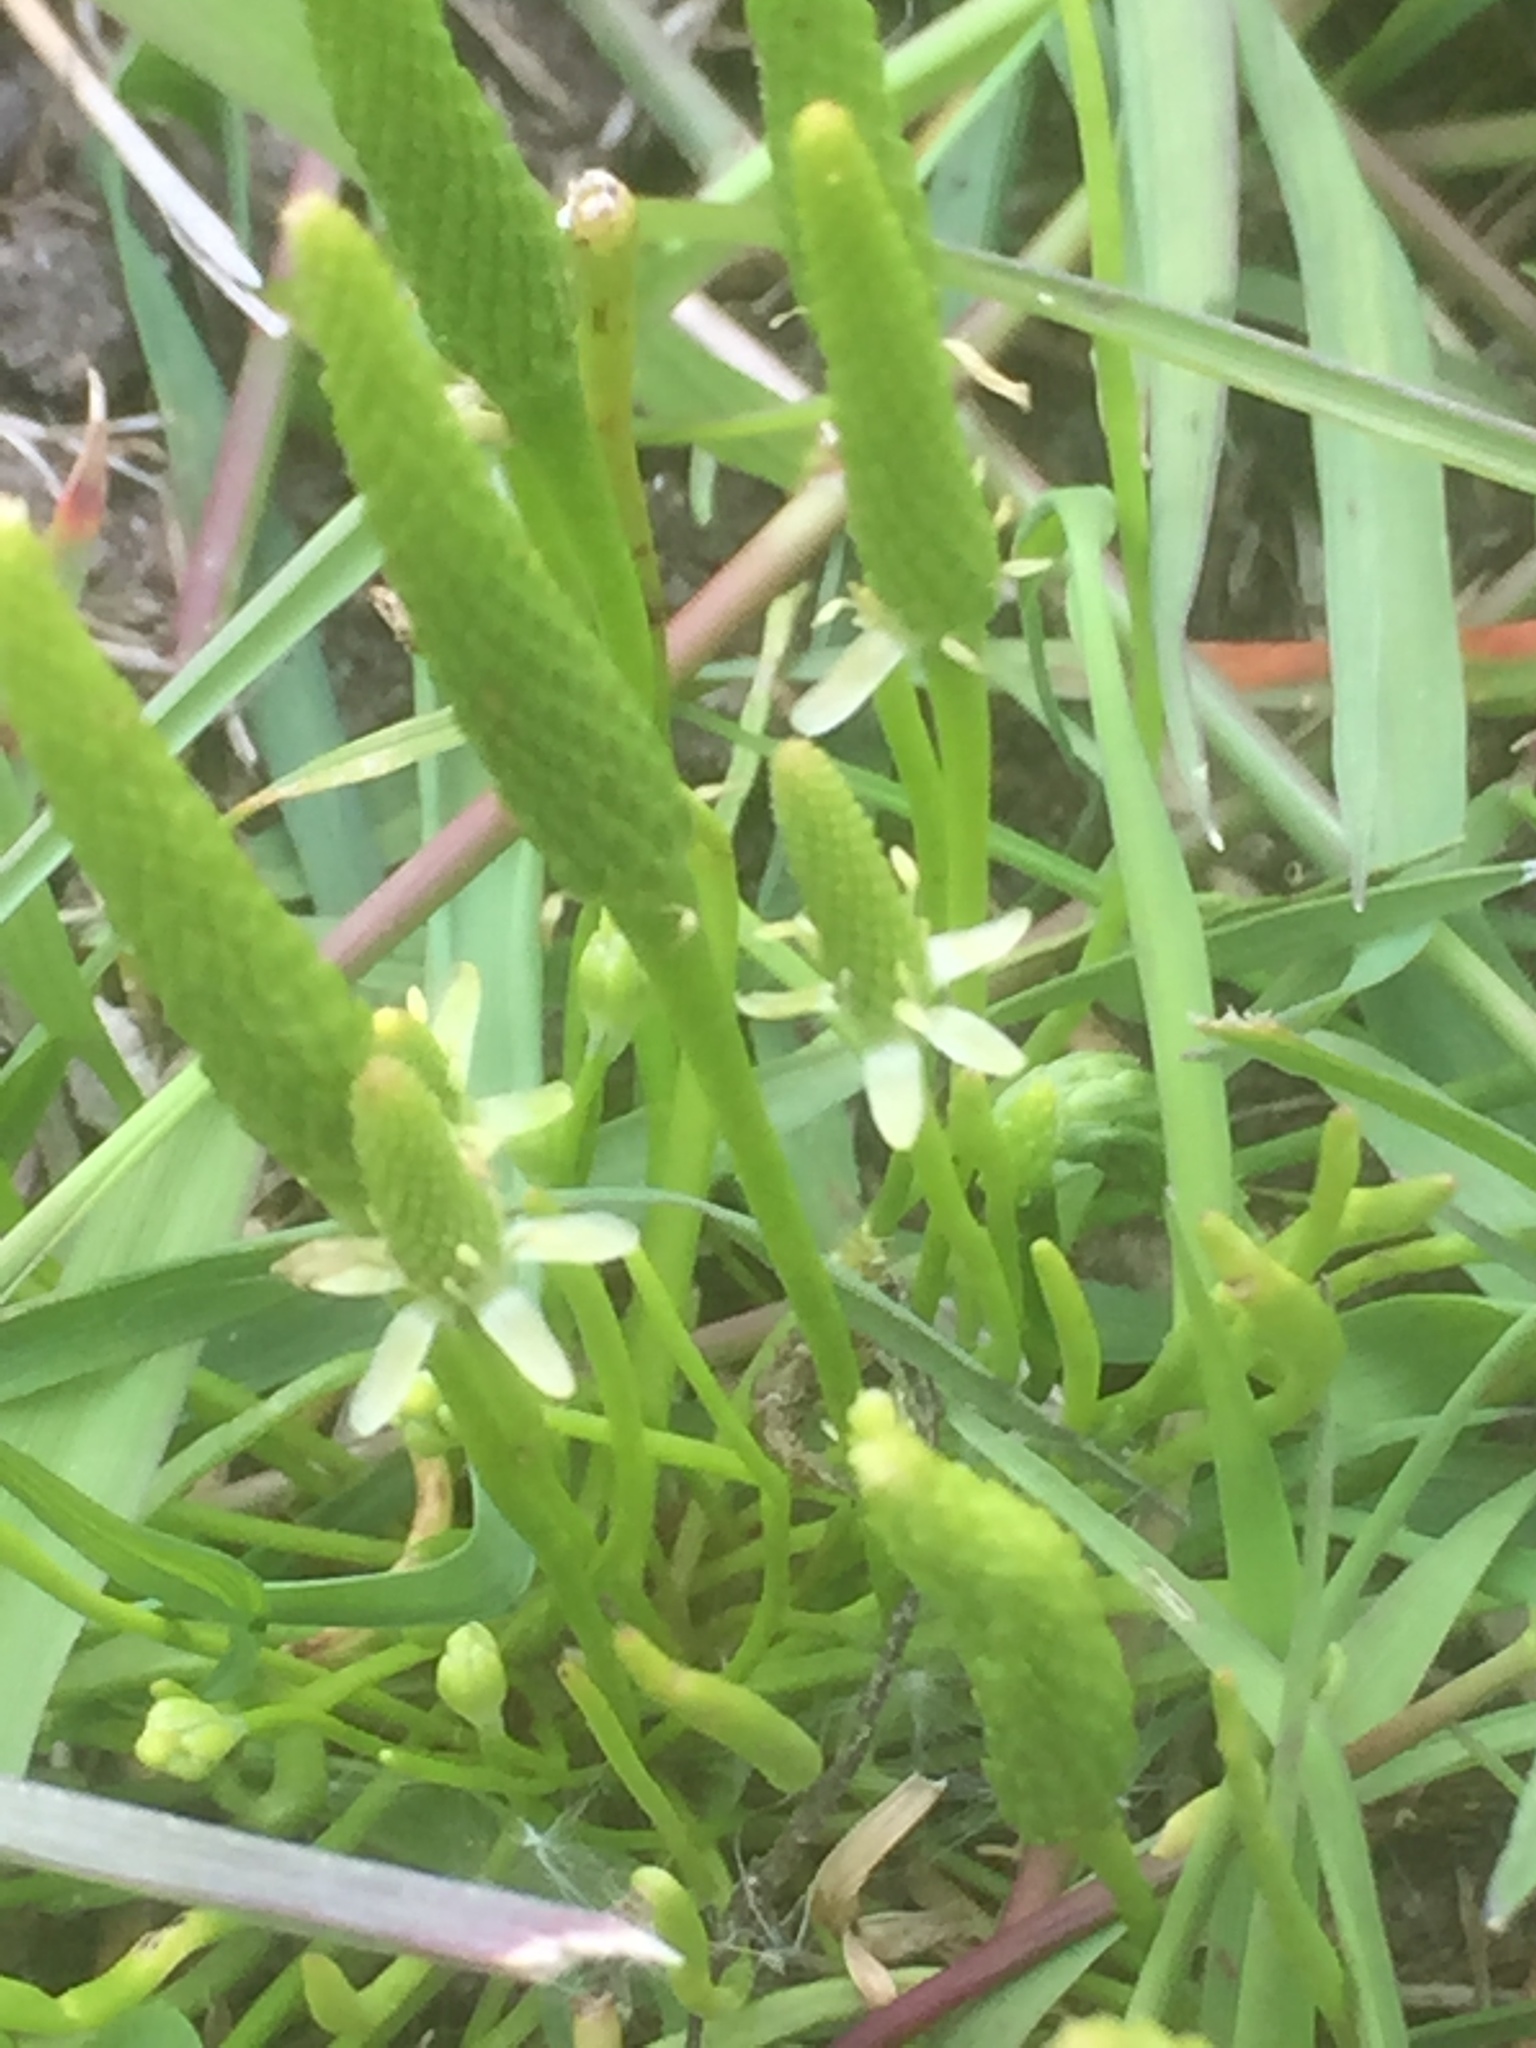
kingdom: Plantae
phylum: Tracheophyta
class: Magnoliopsida
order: Ranunculales
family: Ranunculaceae
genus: Myosurus
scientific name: Myosurus minimus
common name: Mousetail
